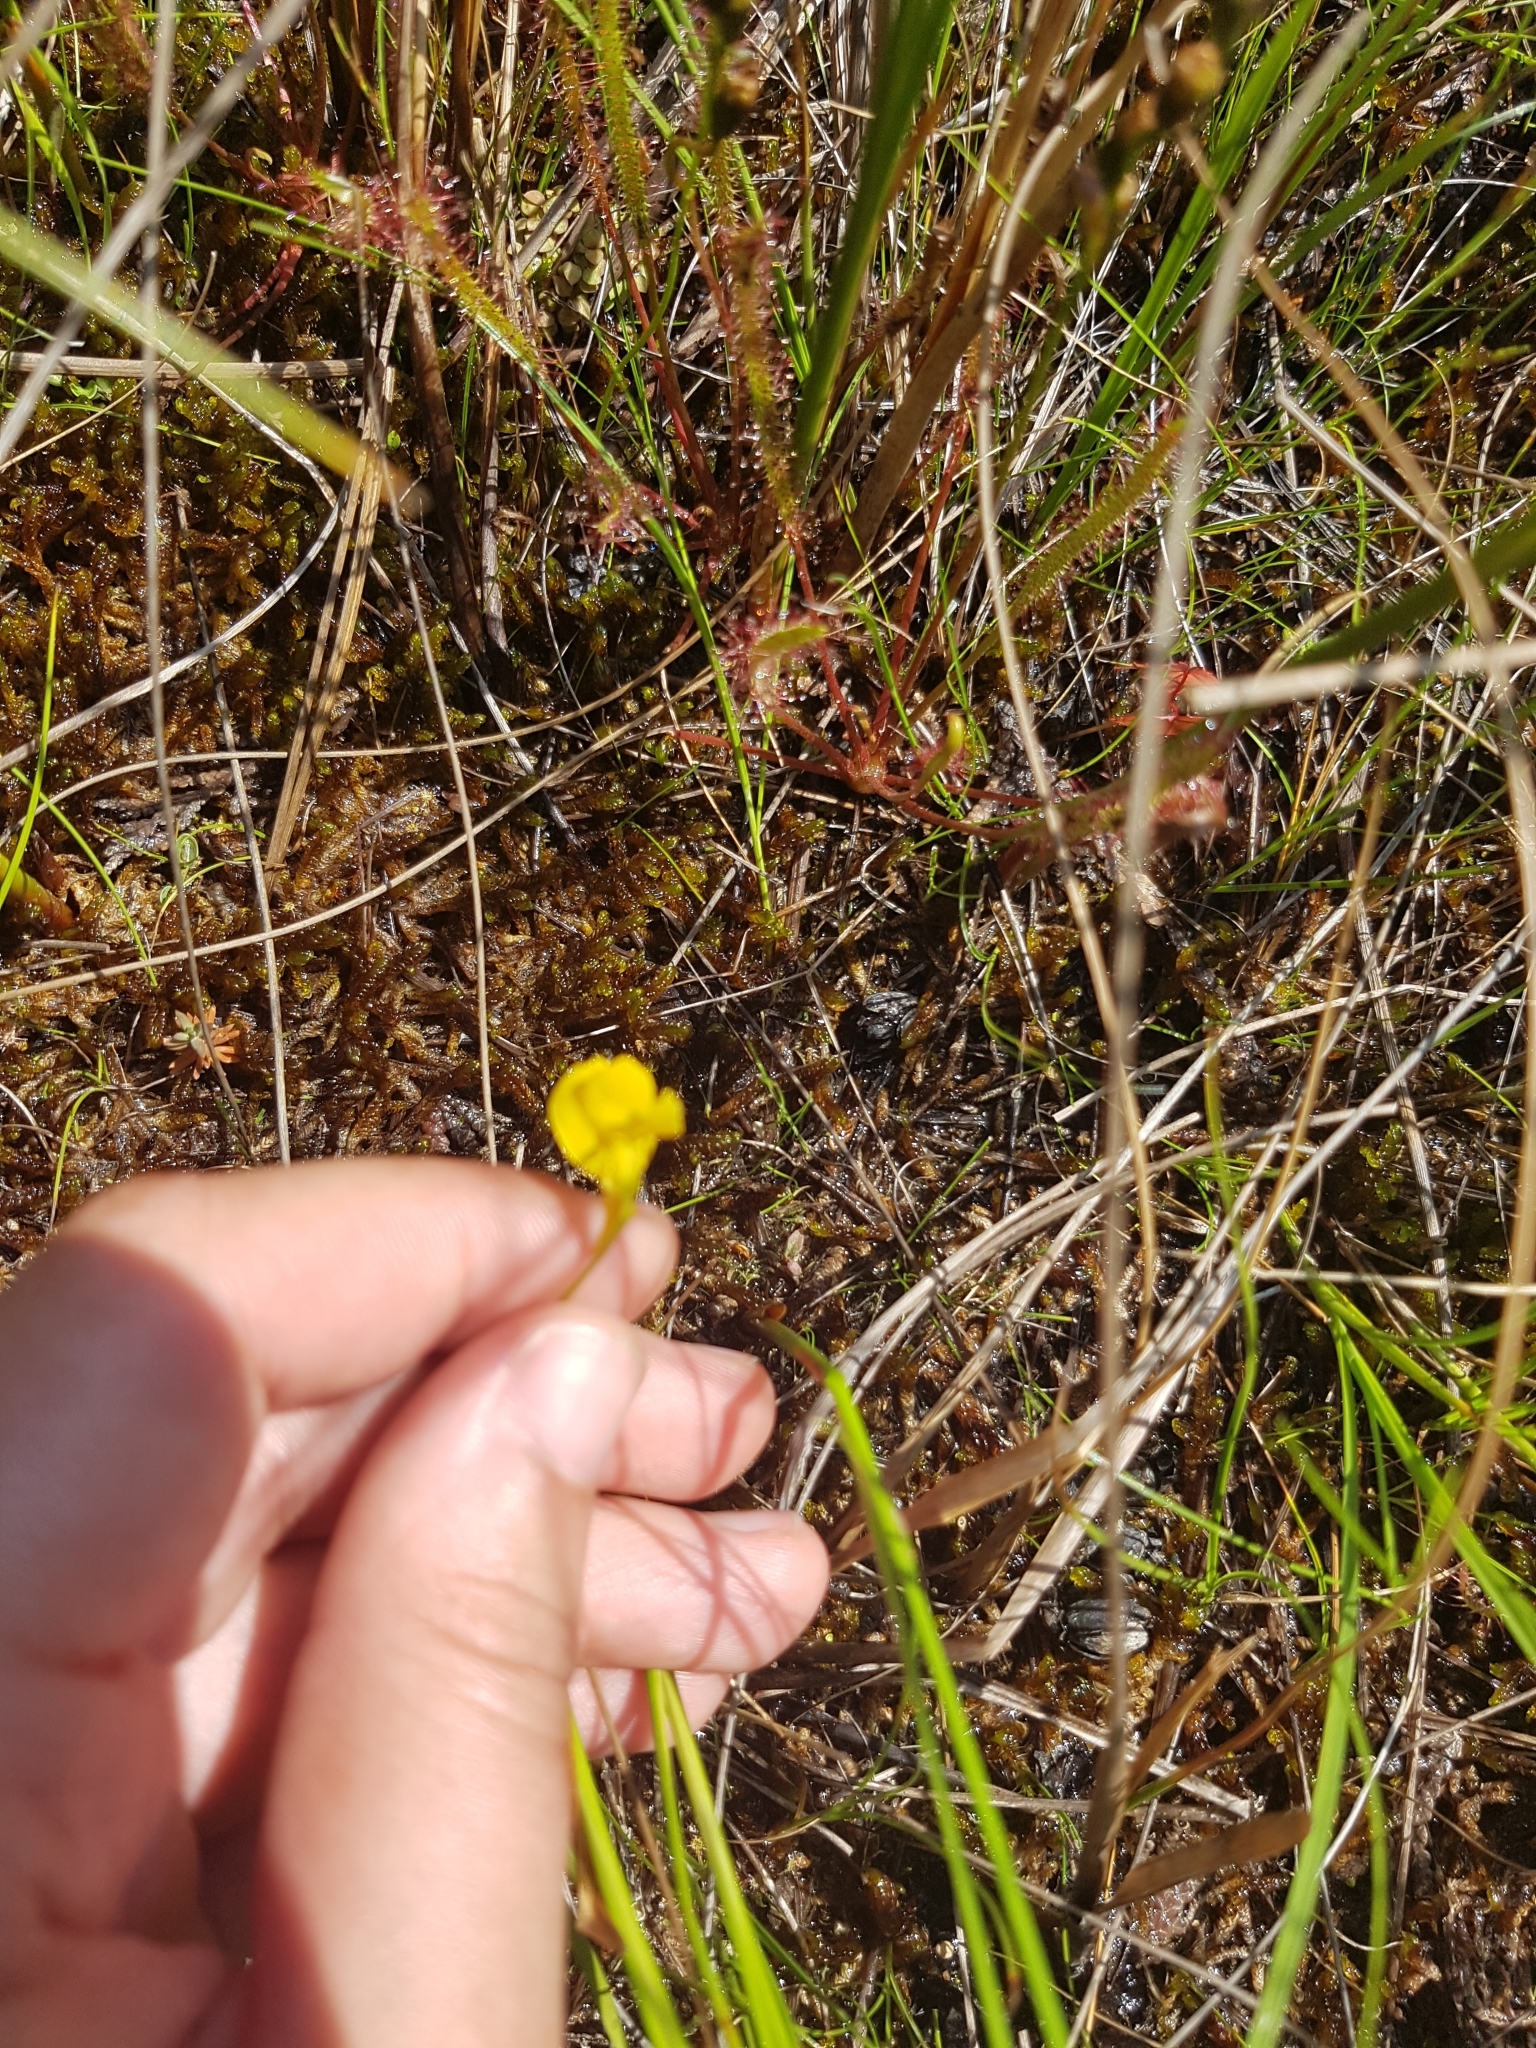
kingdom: Plantae
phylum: Tracheophyta
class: Magnoliopsida
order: Lamiales
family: Lentibulariaceae
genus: Utricularia
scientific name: Utricularia cornuta
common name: Horned bladderwort
